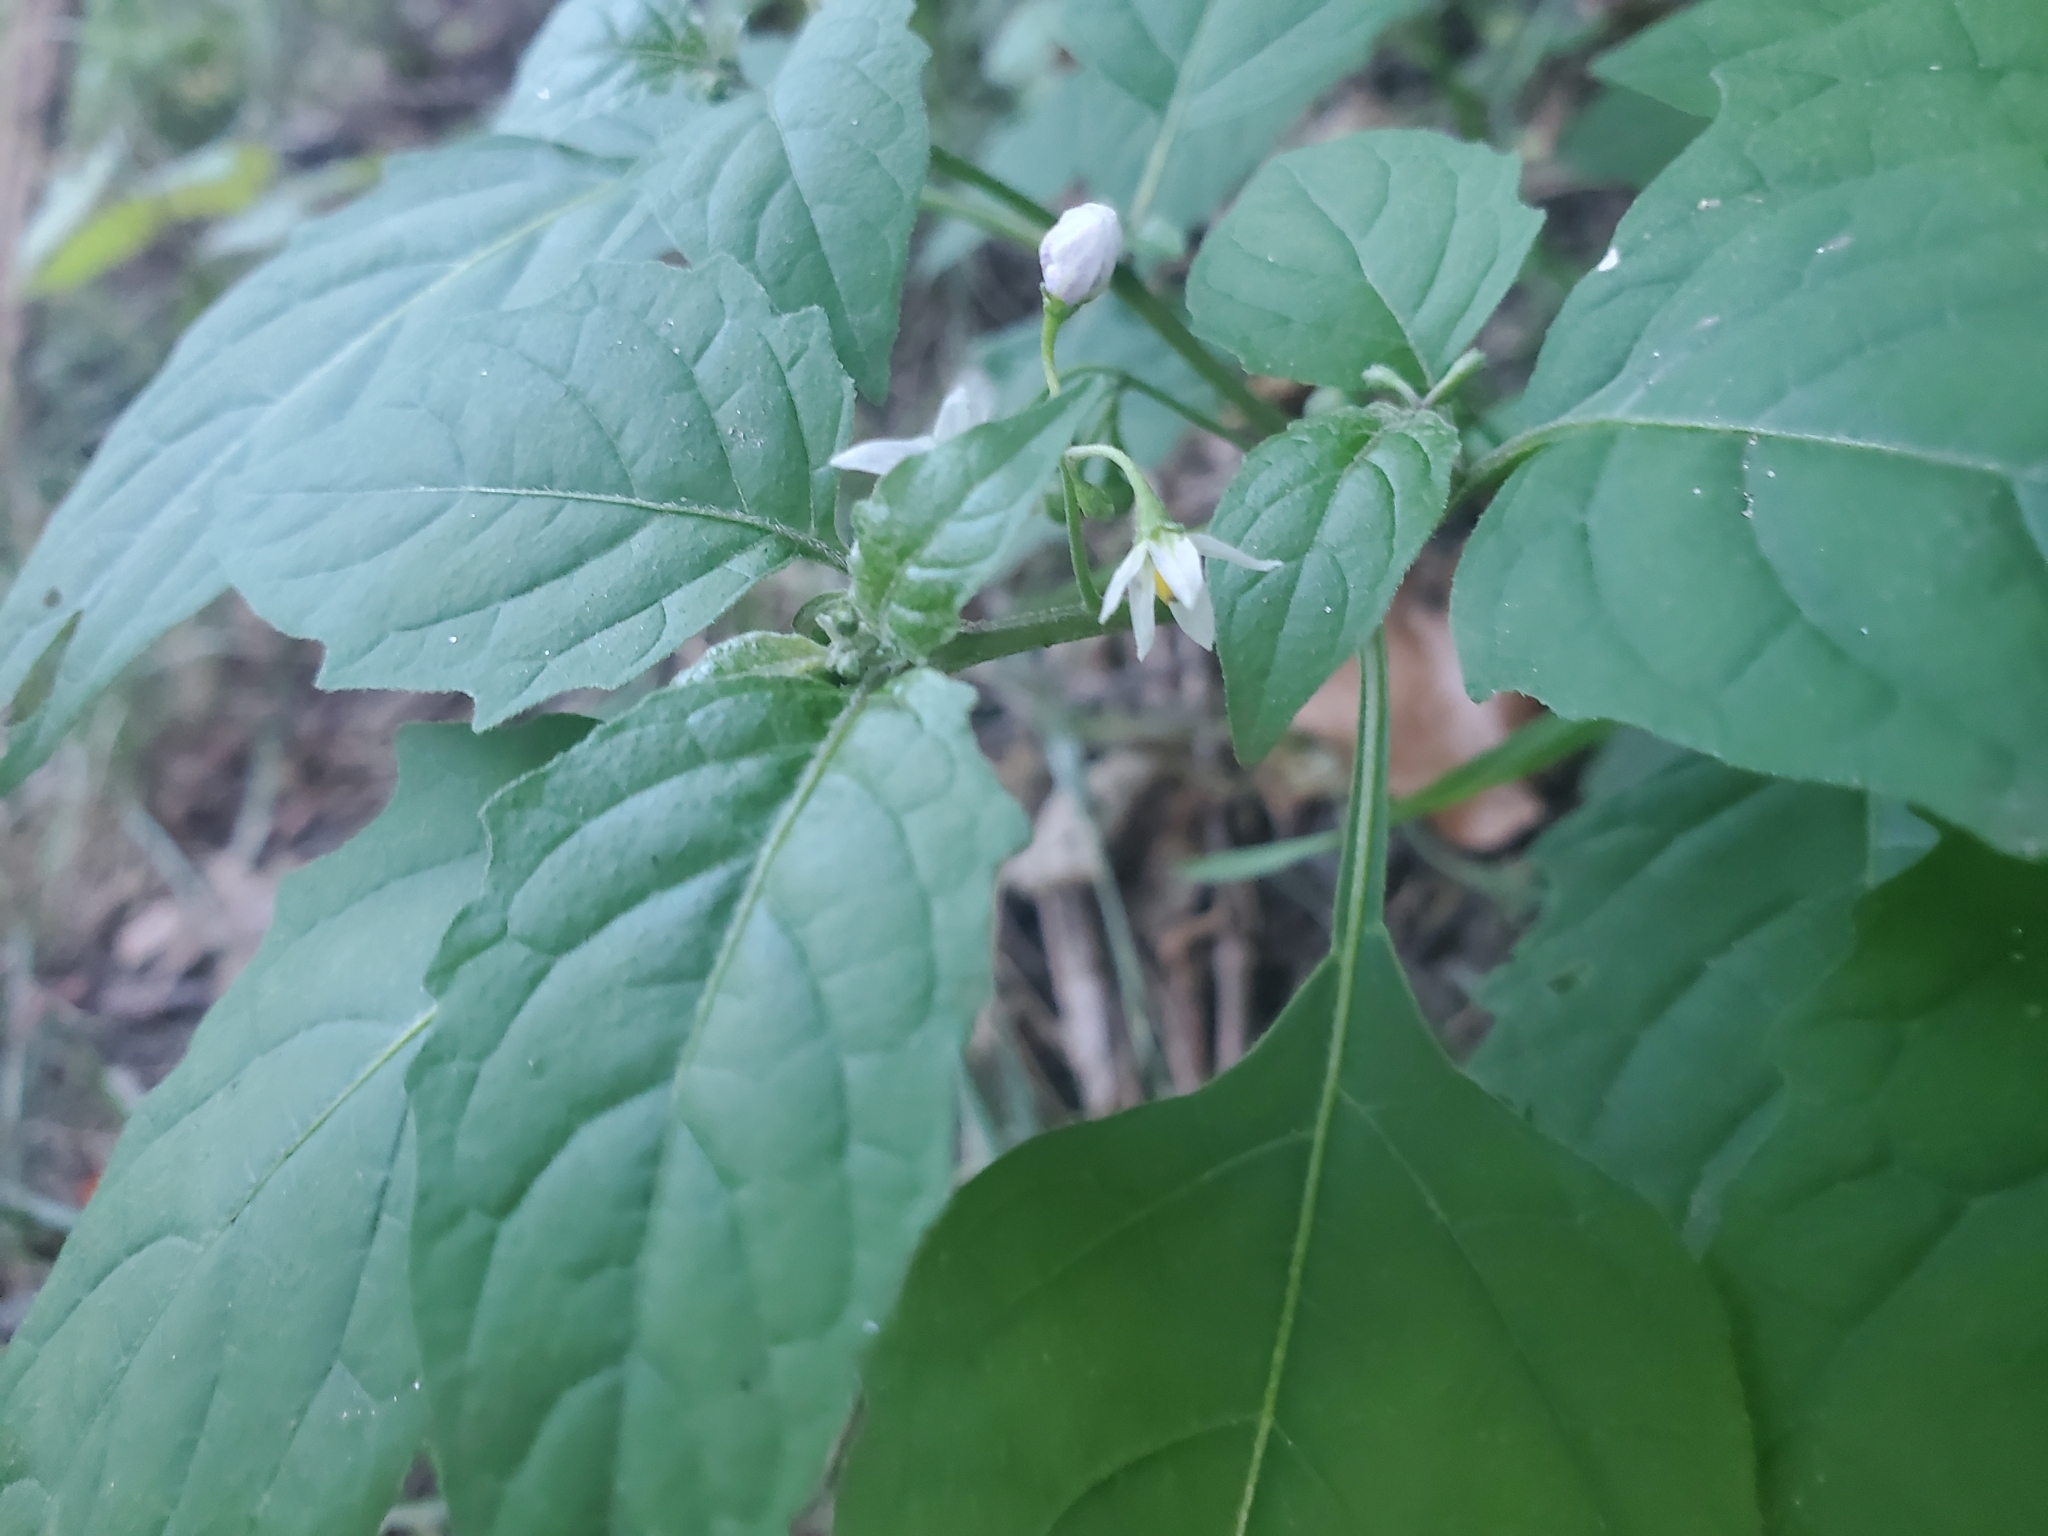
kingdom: Plantae
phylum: Tracheophyta
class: Magnoliopsida
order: Solanales
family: Solanaceae
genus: Solanum
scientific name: Solanum emulans
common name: Eastern black nightshade
